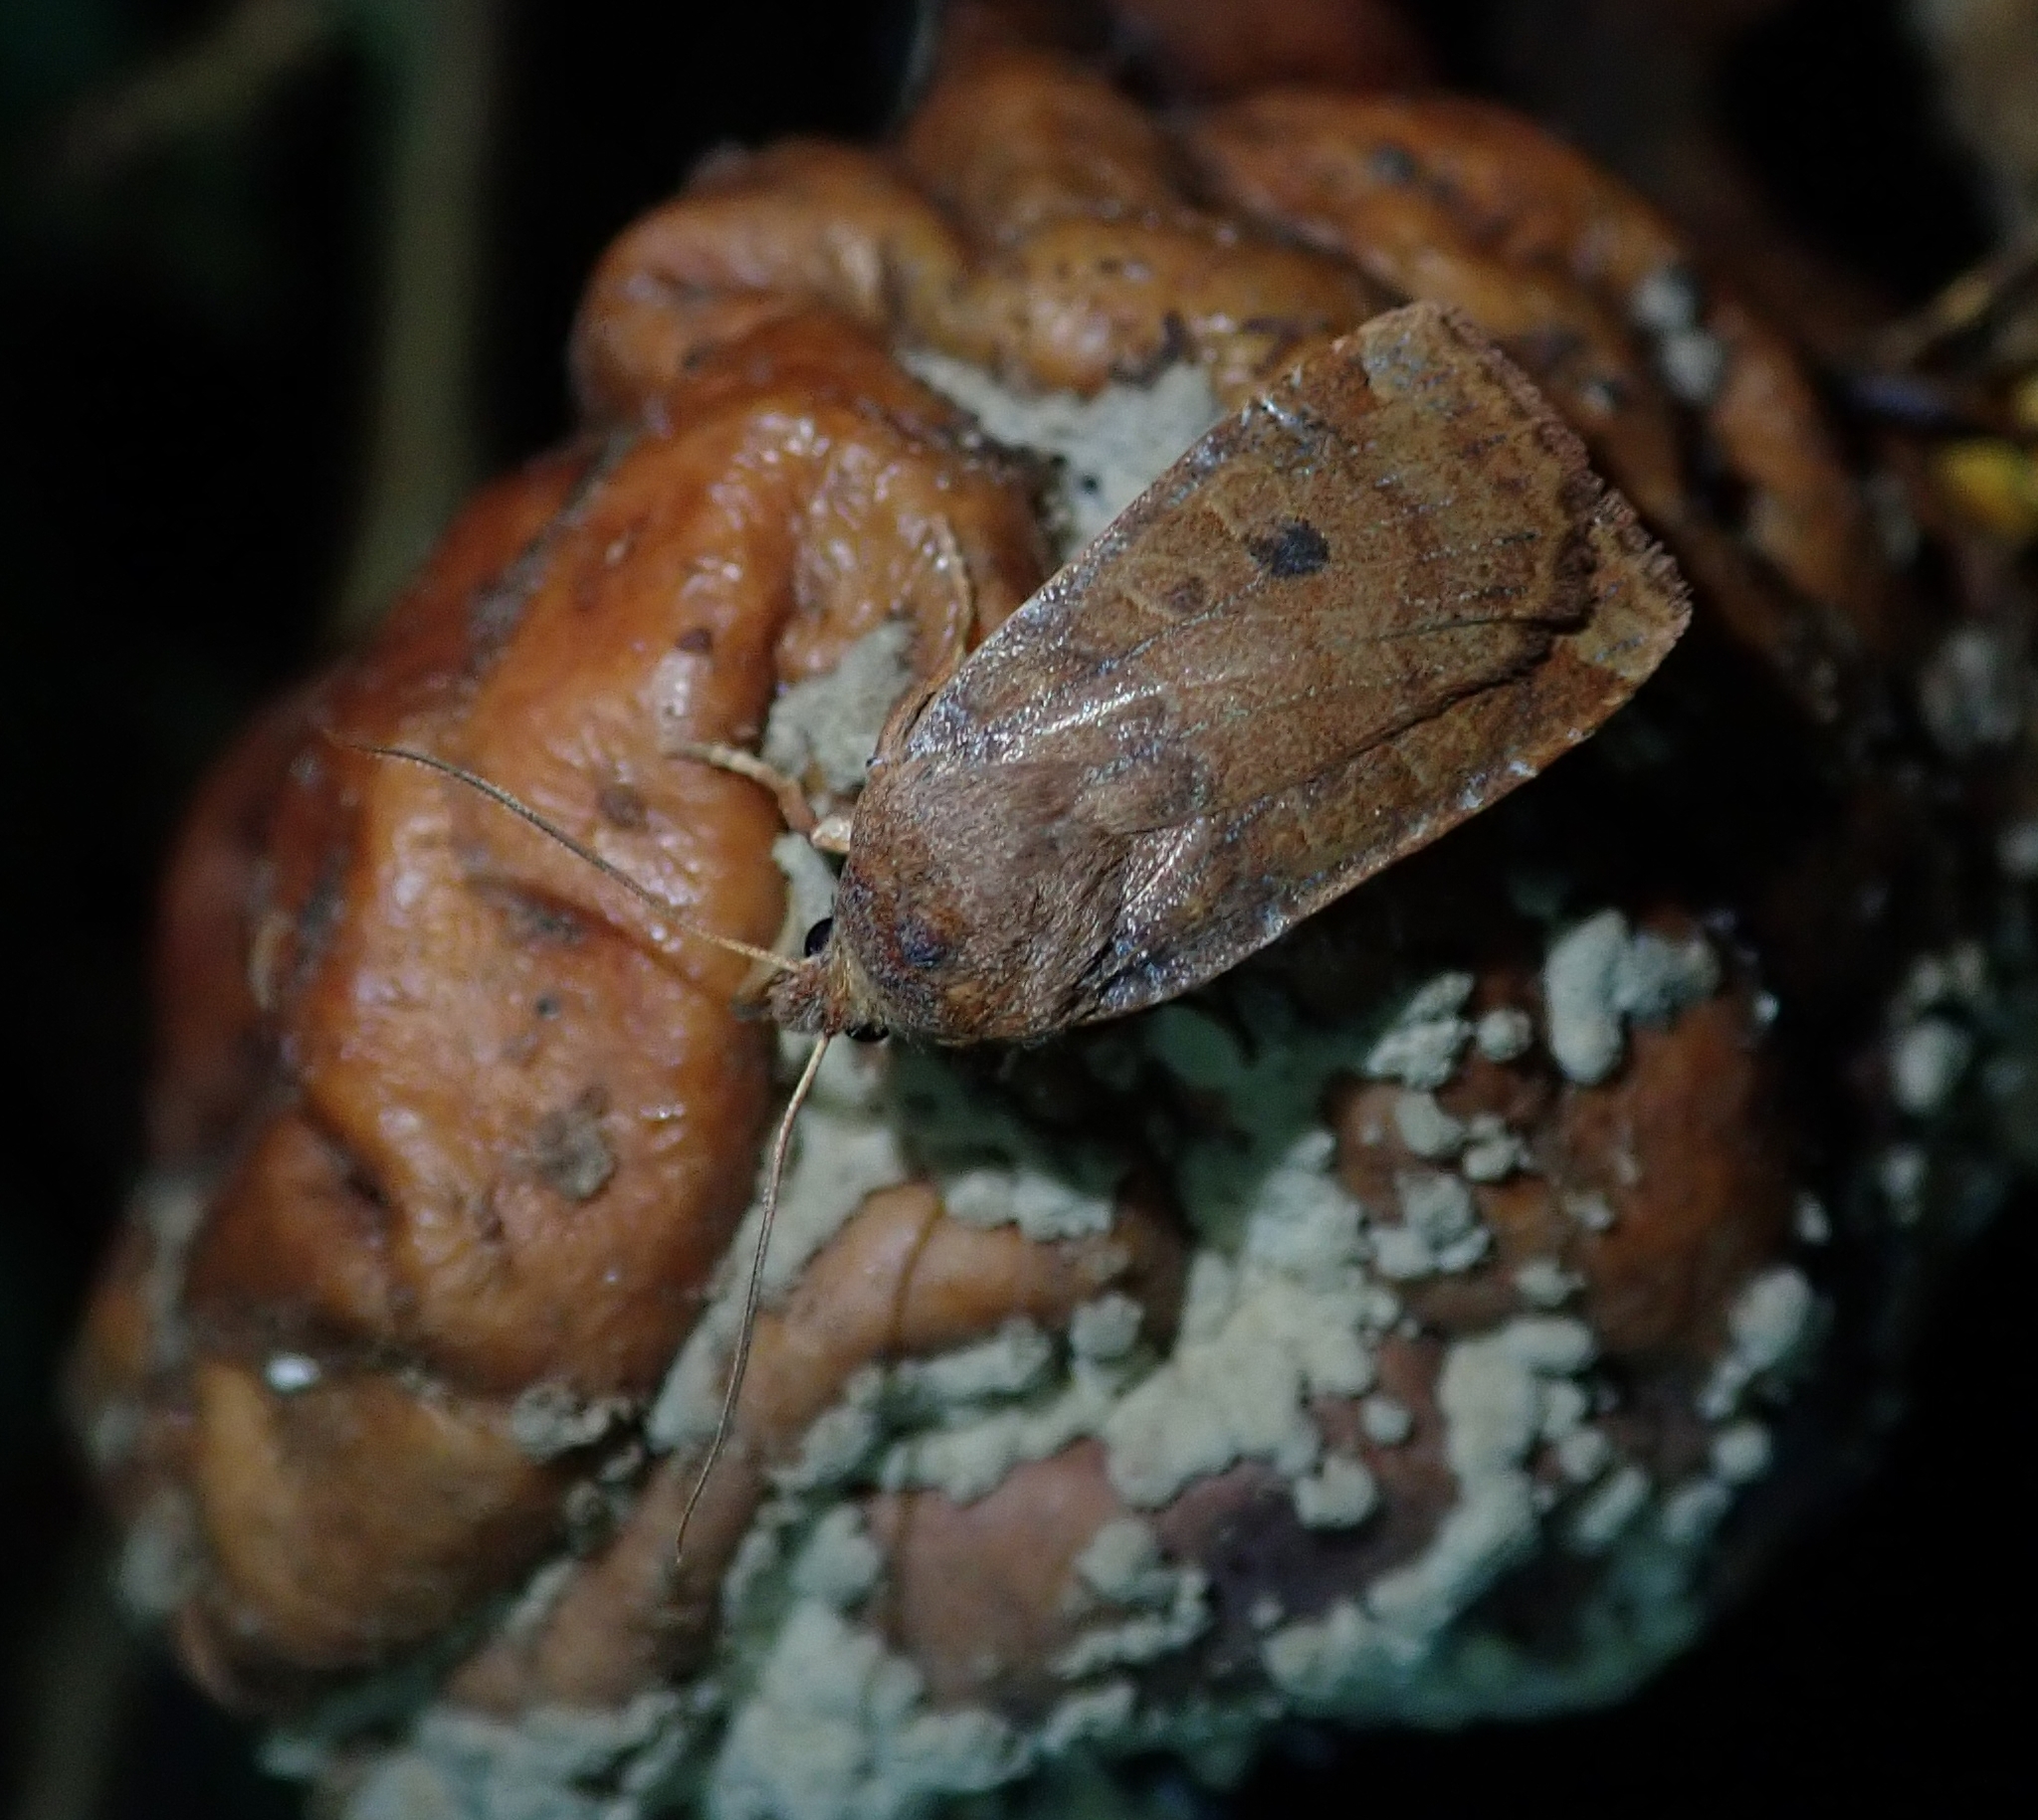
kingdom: Animalia
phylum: Arthropoda
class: Insecta
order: Lepidoptera
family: Noctuidae
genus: Conistra
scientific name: Conistra vaccinii
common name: Chestnut
